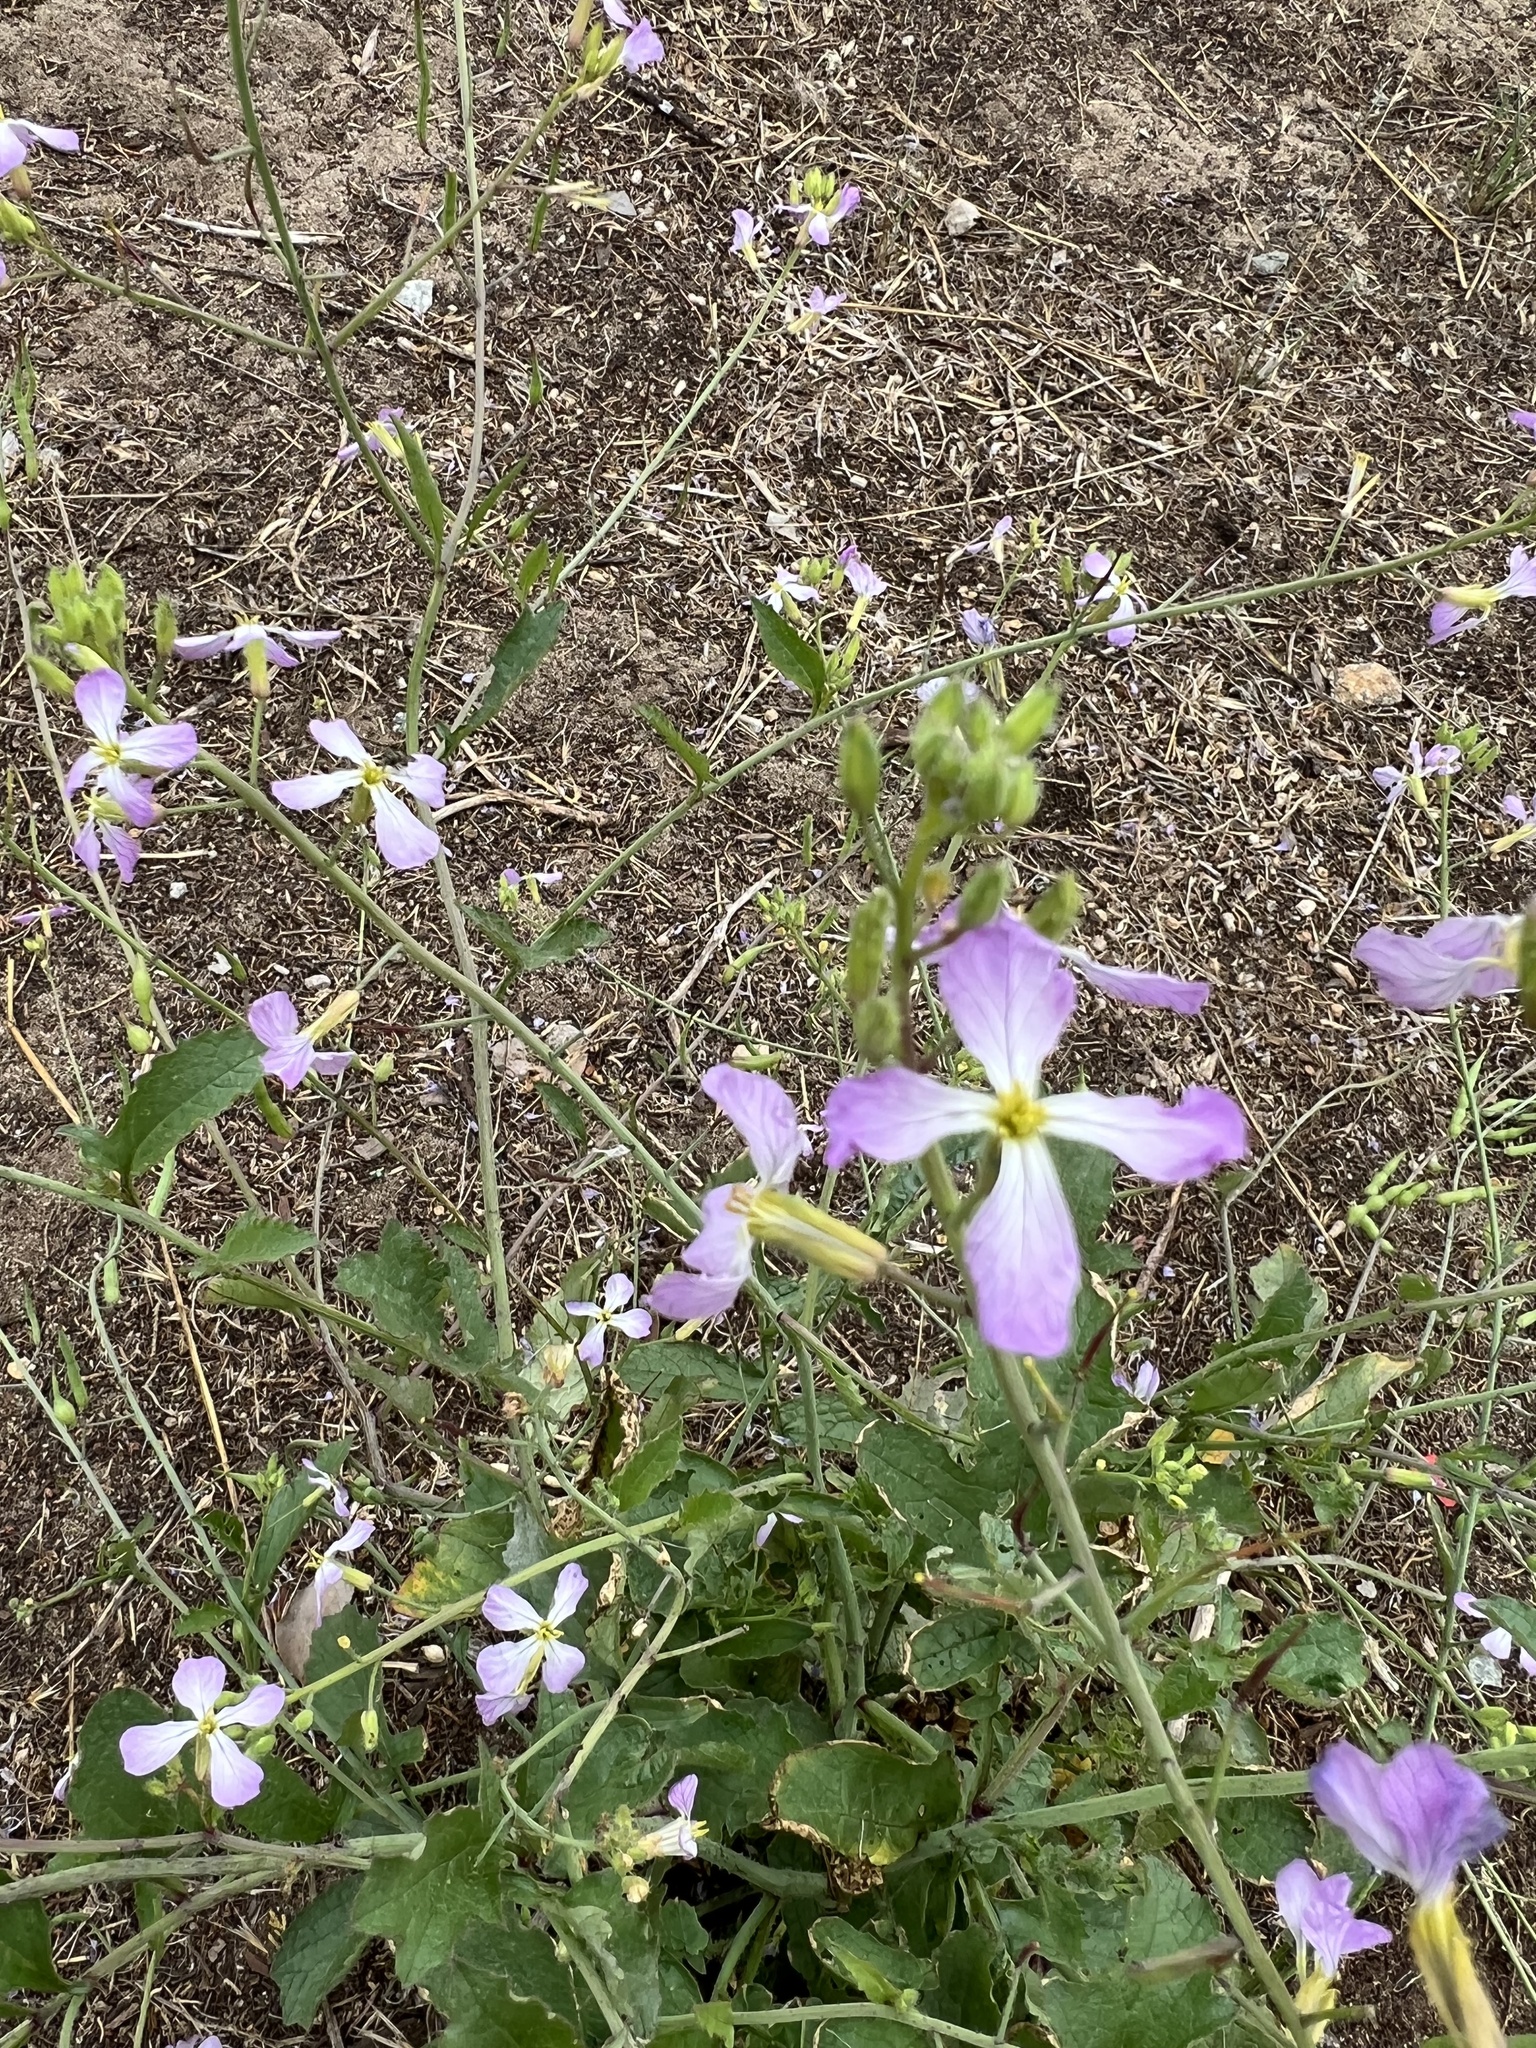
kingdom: Plantae
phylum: Tracheophyta
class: Magnoliopsida
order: Brassicales
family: Brassicaceae
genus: Raphanus
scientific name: Raphanus sativus
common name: Cultivated radish
